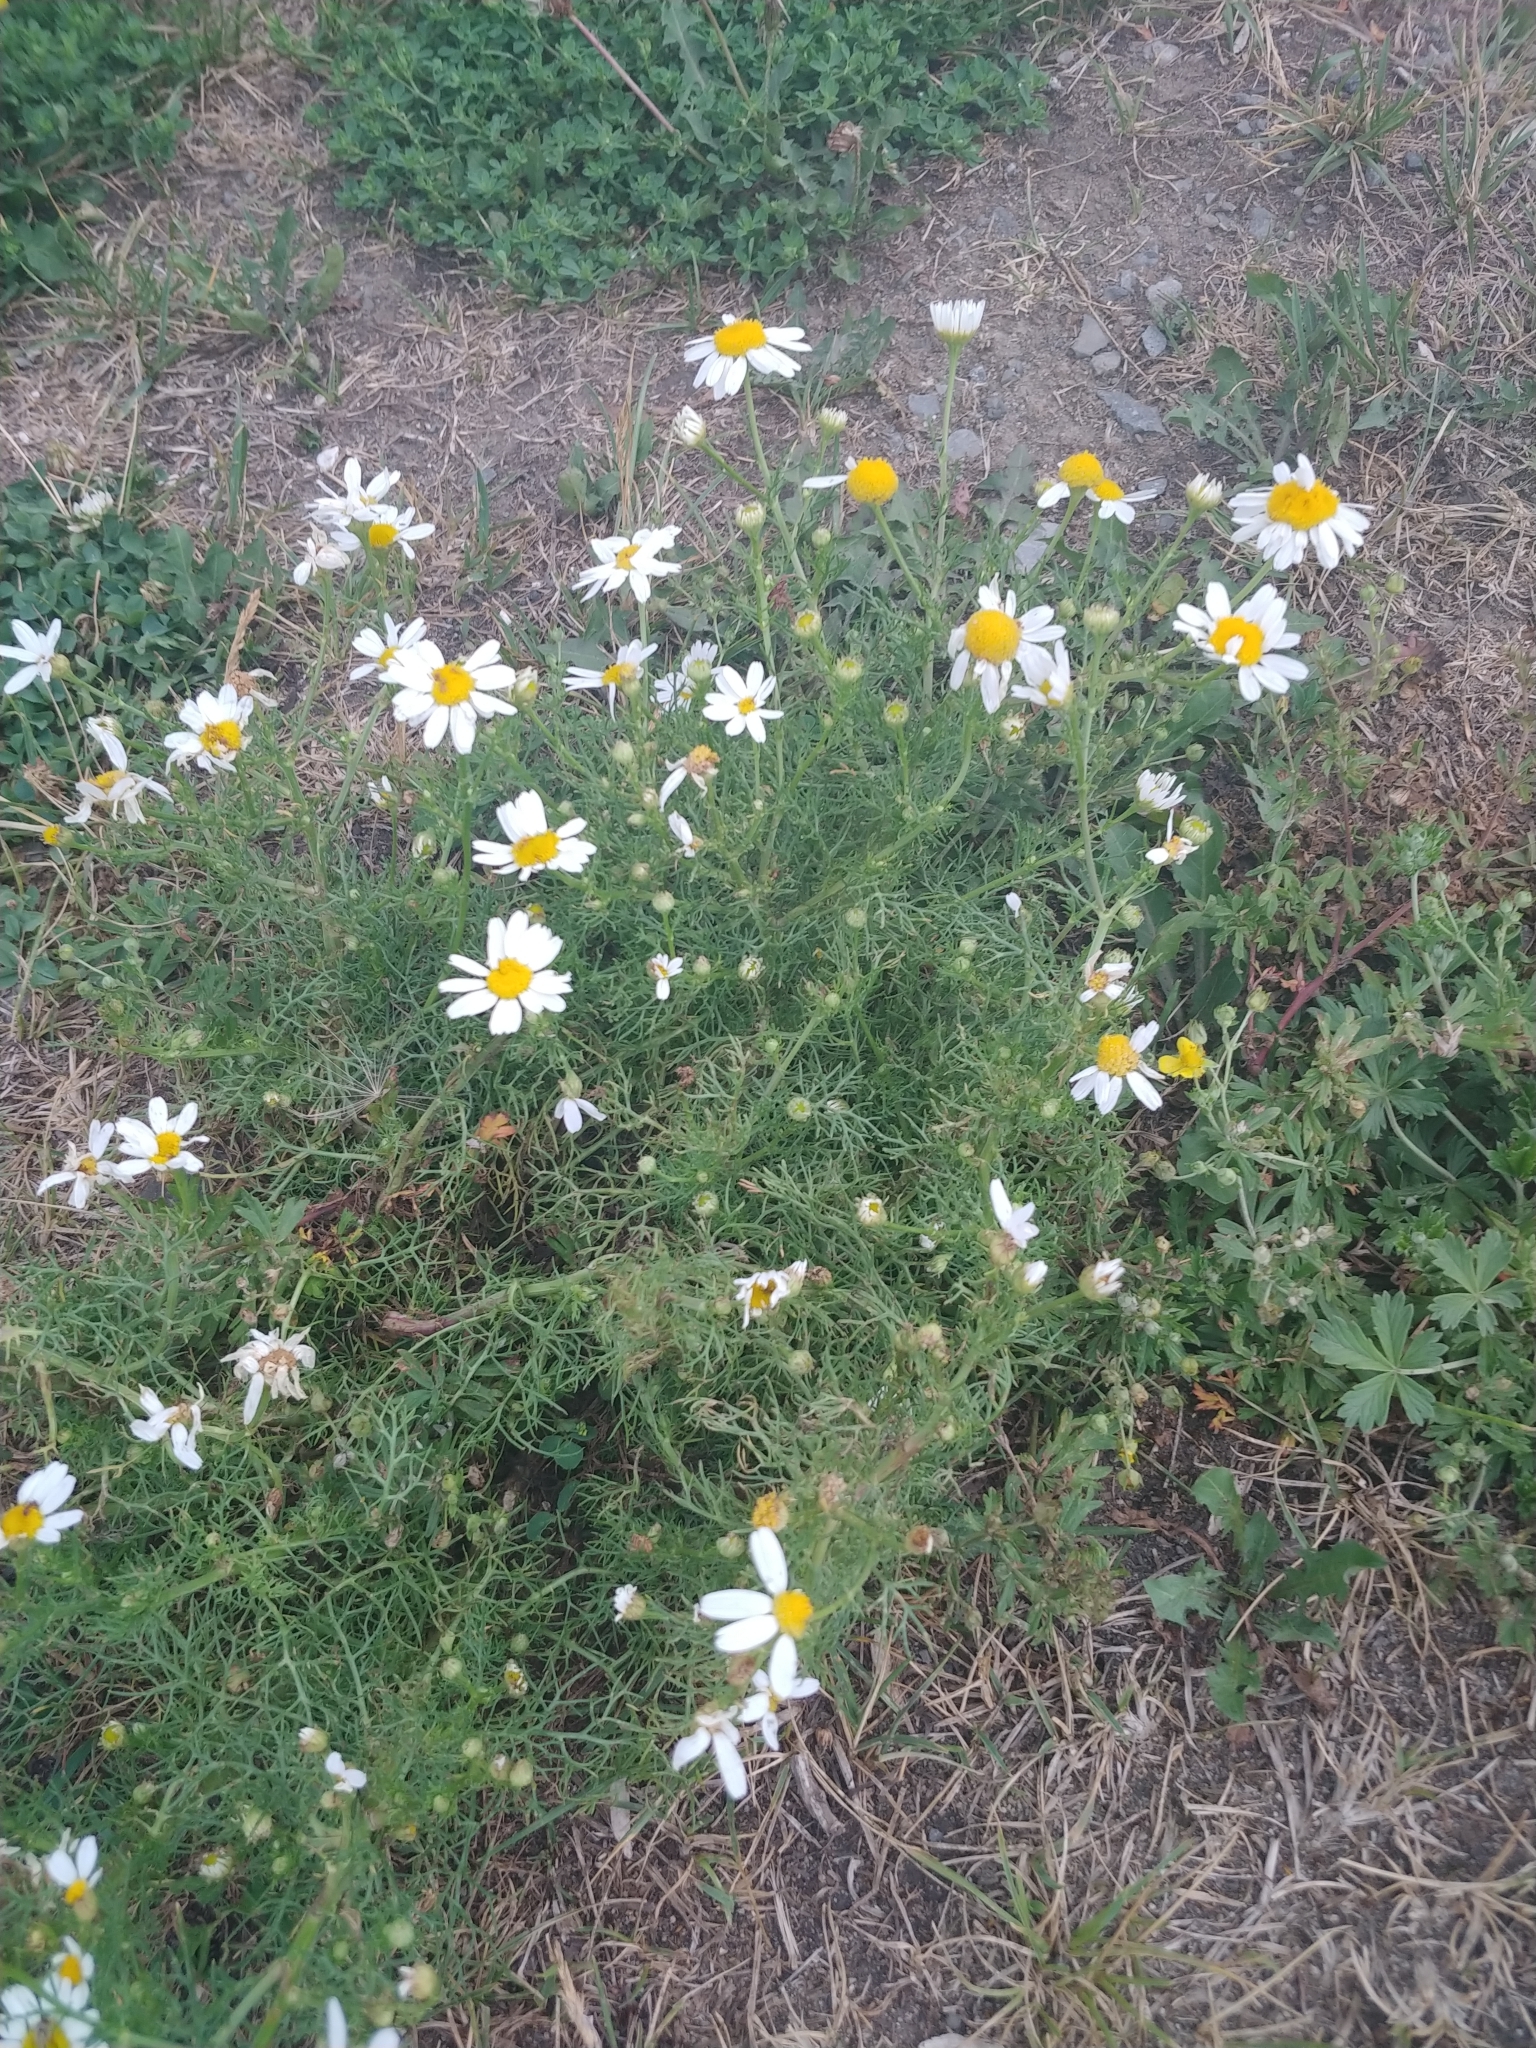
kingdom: Plantae
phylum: Tracheophyta
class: Magnoliopsida
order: Asterales
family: Asteraceae
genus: Tripleurospermum
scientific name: Tripleurospermum inodorum
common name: Scentless mayweed
